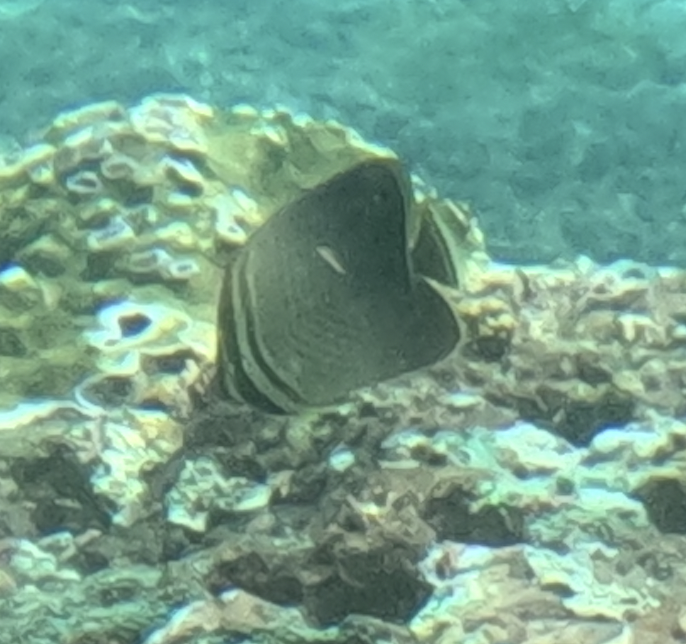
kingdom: Animalia
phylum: Chordata
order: Perciformes
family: Chaetodontidae
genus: Chaetodon
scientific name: Chaetodon baronessa
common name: Triangular butterflyfish
